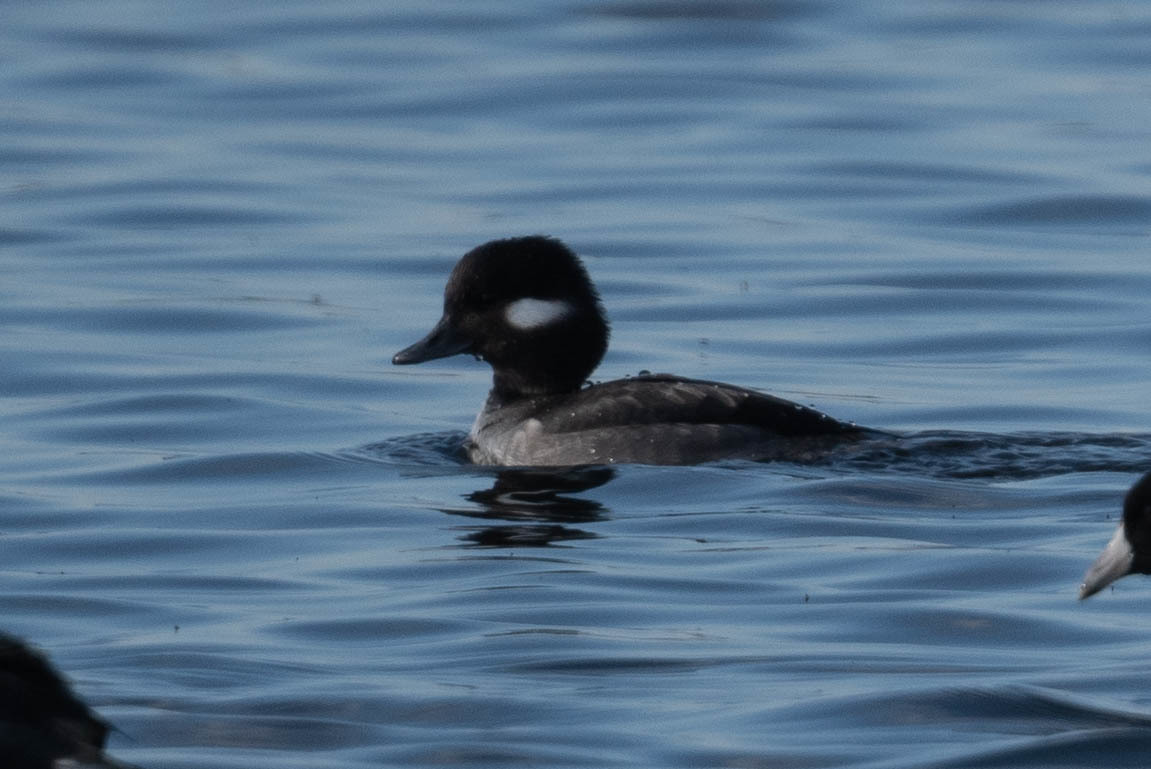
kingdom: Animalia
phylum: Chordata
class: Aves
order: Anseriformes
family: Anatidae
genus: Bucephala
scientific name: Bucephala albeola
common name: Bufflehead
